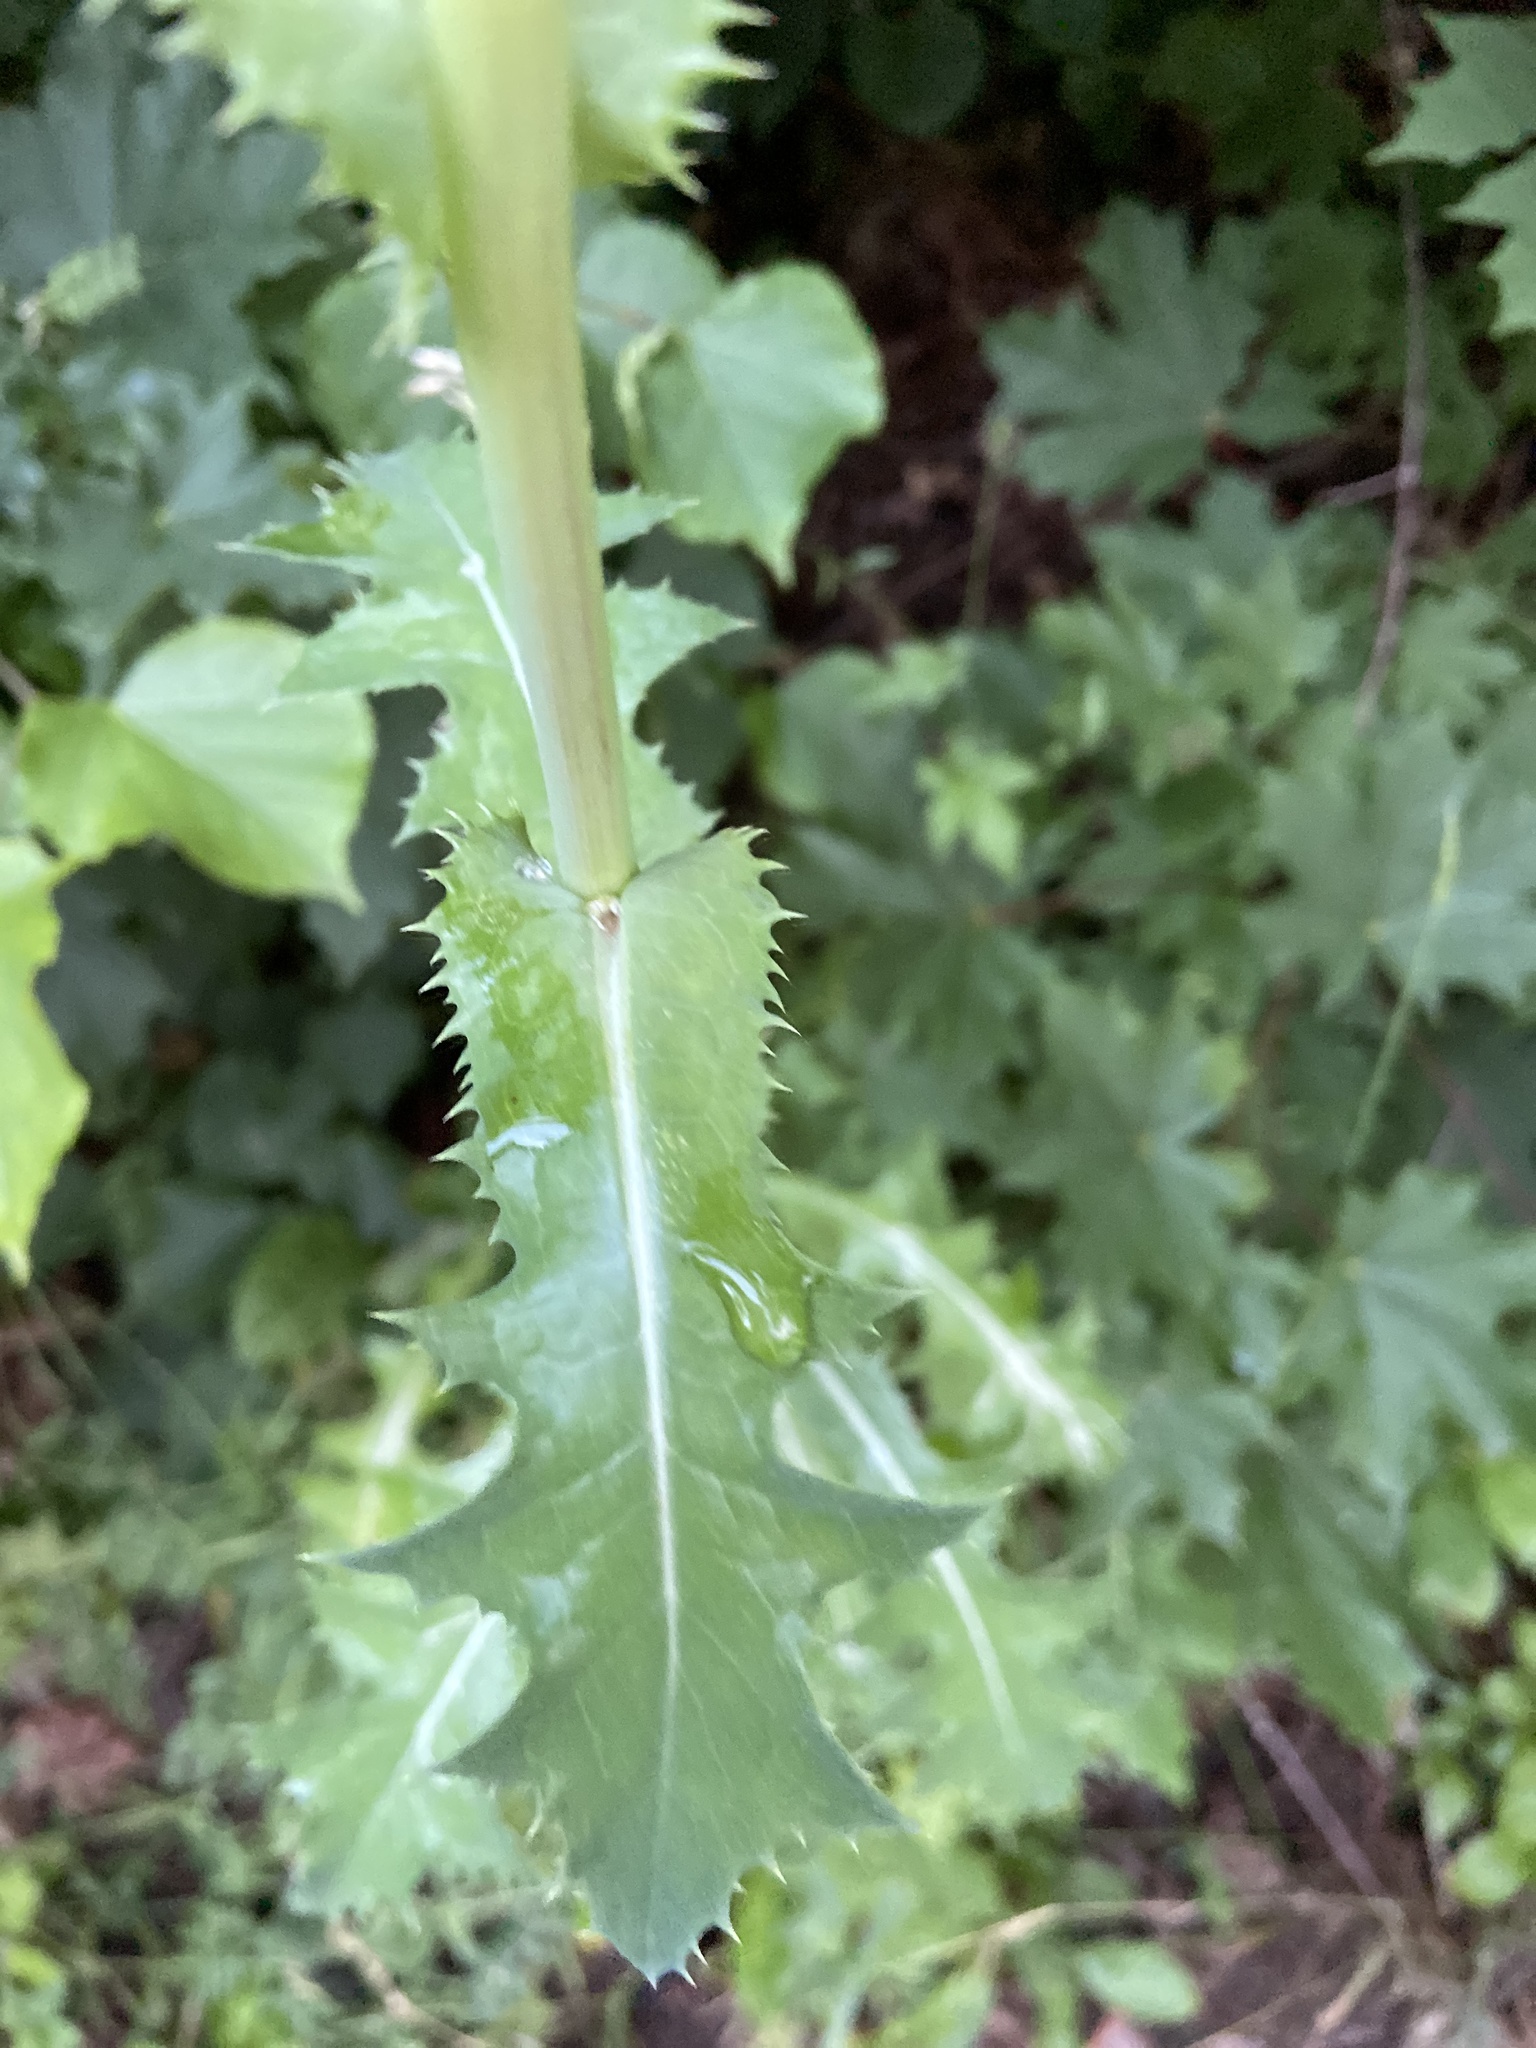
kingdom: Plantae
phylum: Tracheophyta
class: Magnoliopsida
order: Asterales
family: Asteraceae
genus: Sonchus
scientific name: Sonchus asper
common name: Prickly sow-thistle
